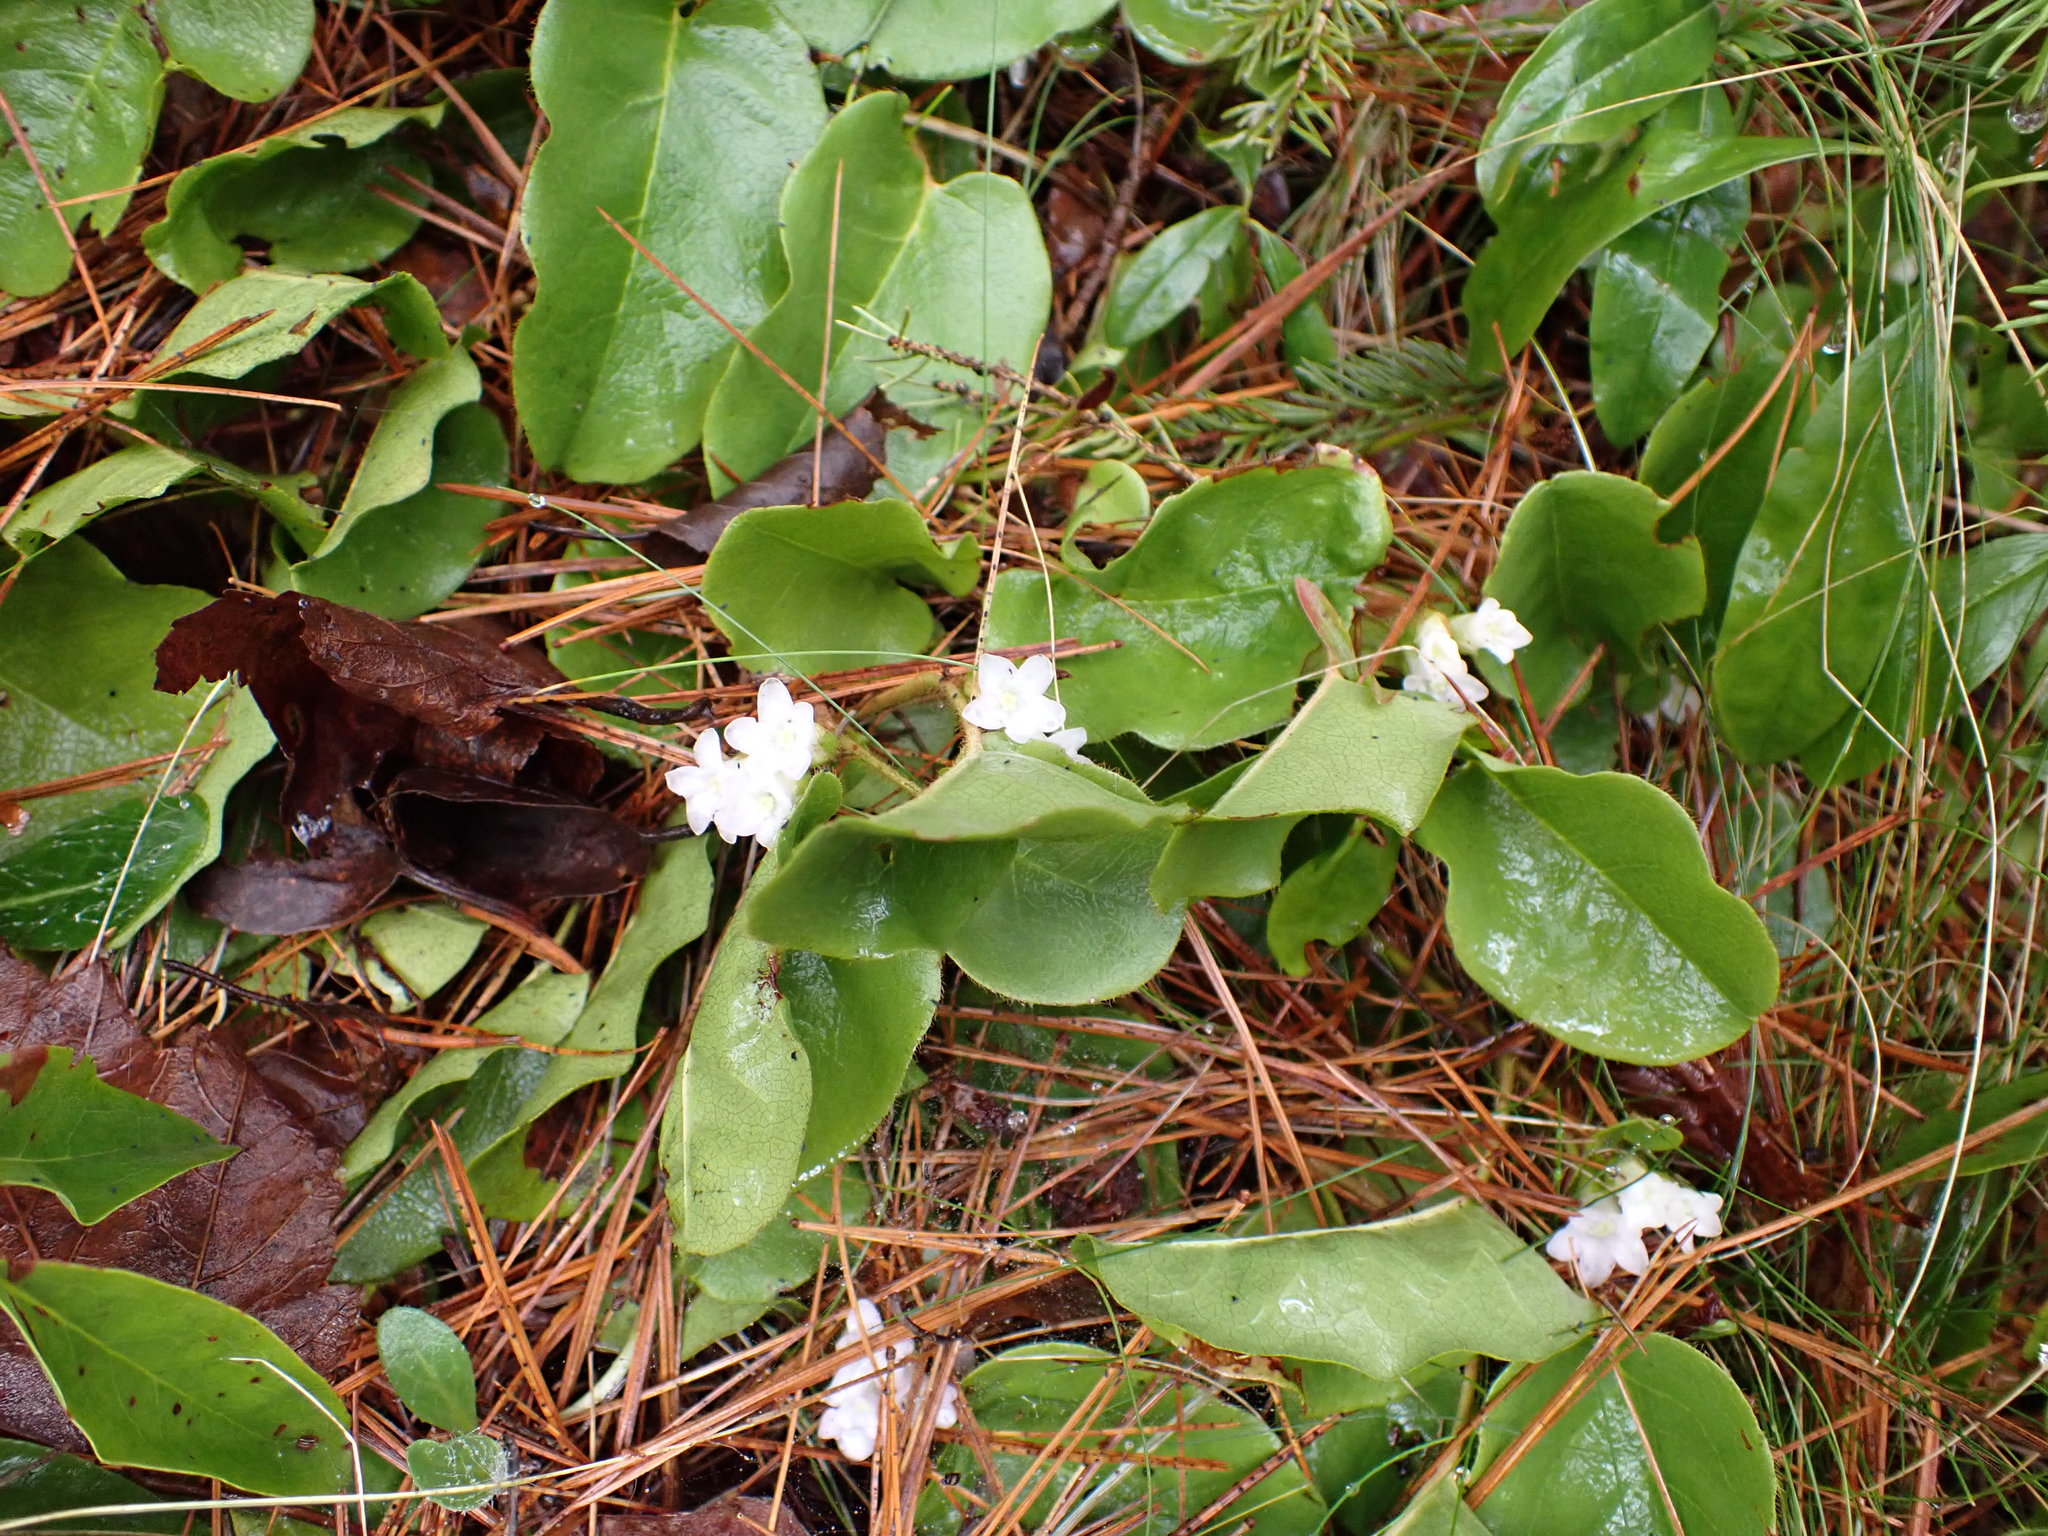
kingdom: Plantae
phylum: Tracheophyta
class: Magnoliopsida
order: Ericales
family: Ericaceae
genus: Epigaea
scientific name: Epigaea repens
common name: Gravelroot
